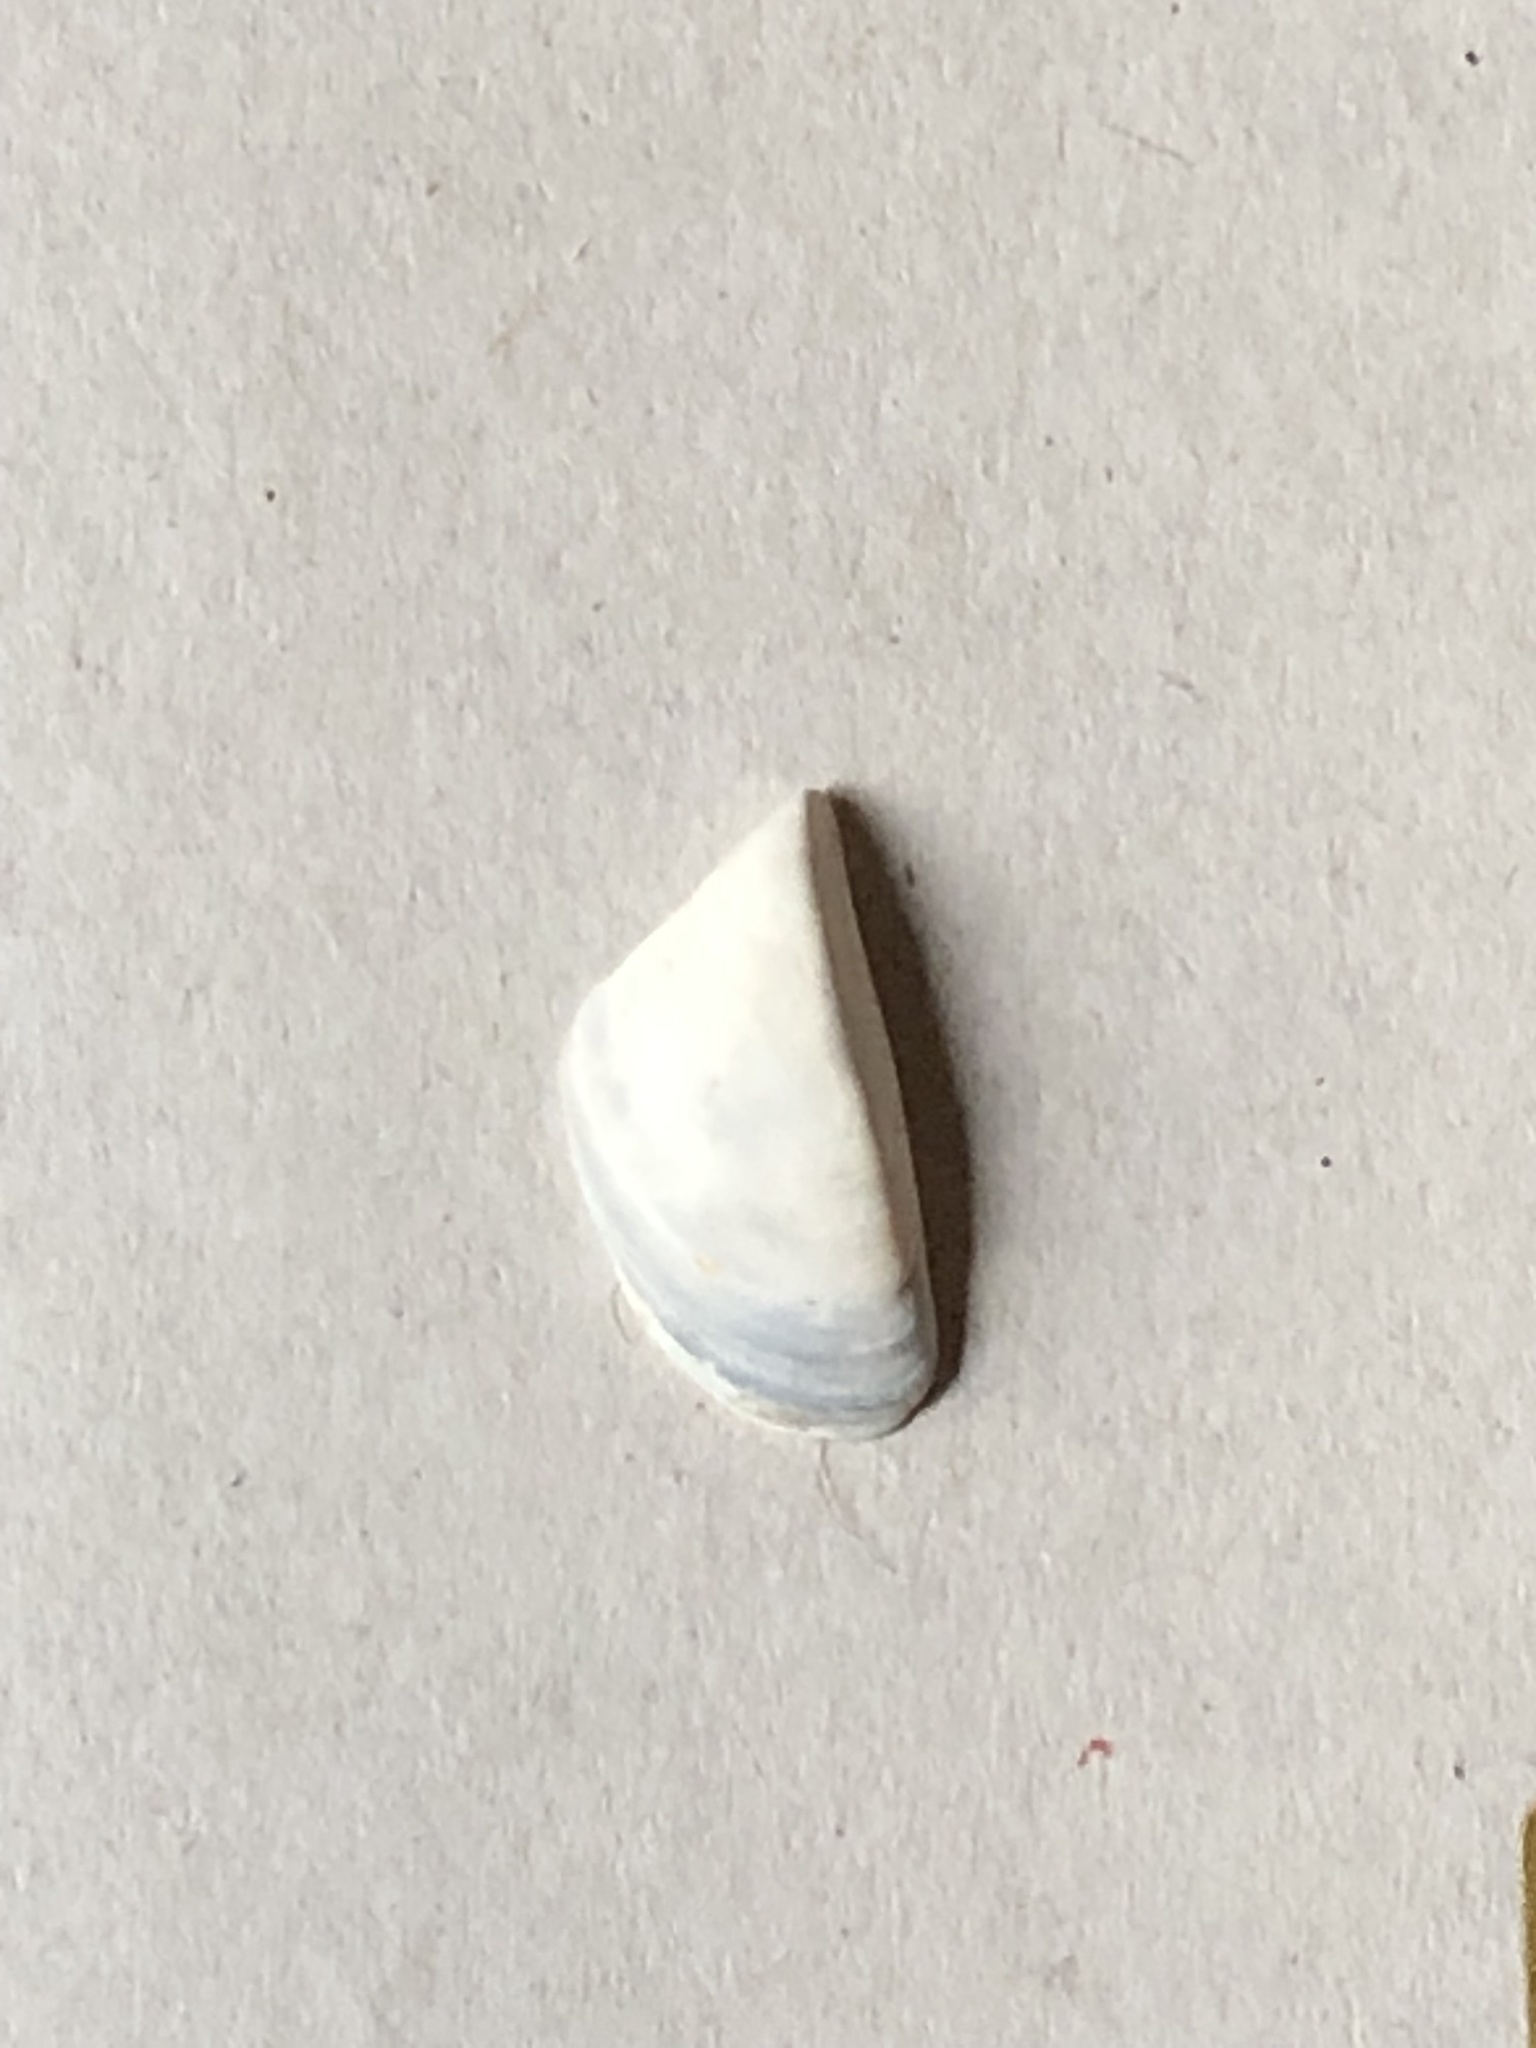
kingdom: Animalia
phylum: Mollusca
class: Bivalvia
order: Myida
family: Dreissenidae
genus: Dreissena
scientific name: Dreissena polymorpha
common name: Zebra mussel
